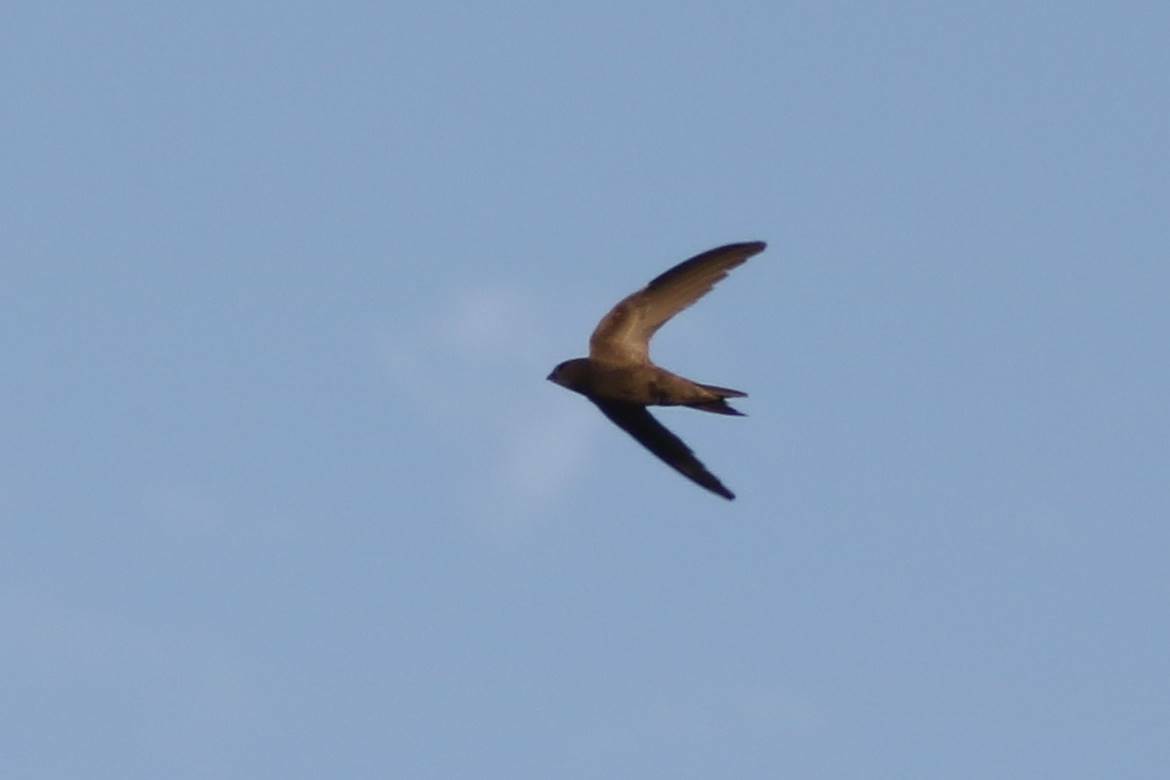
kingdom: Animalia
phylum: Chordata
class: Aves
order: Apodiformes
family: Apodidae
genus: Apus
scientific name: Apus pallidus
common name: Pallid swift
